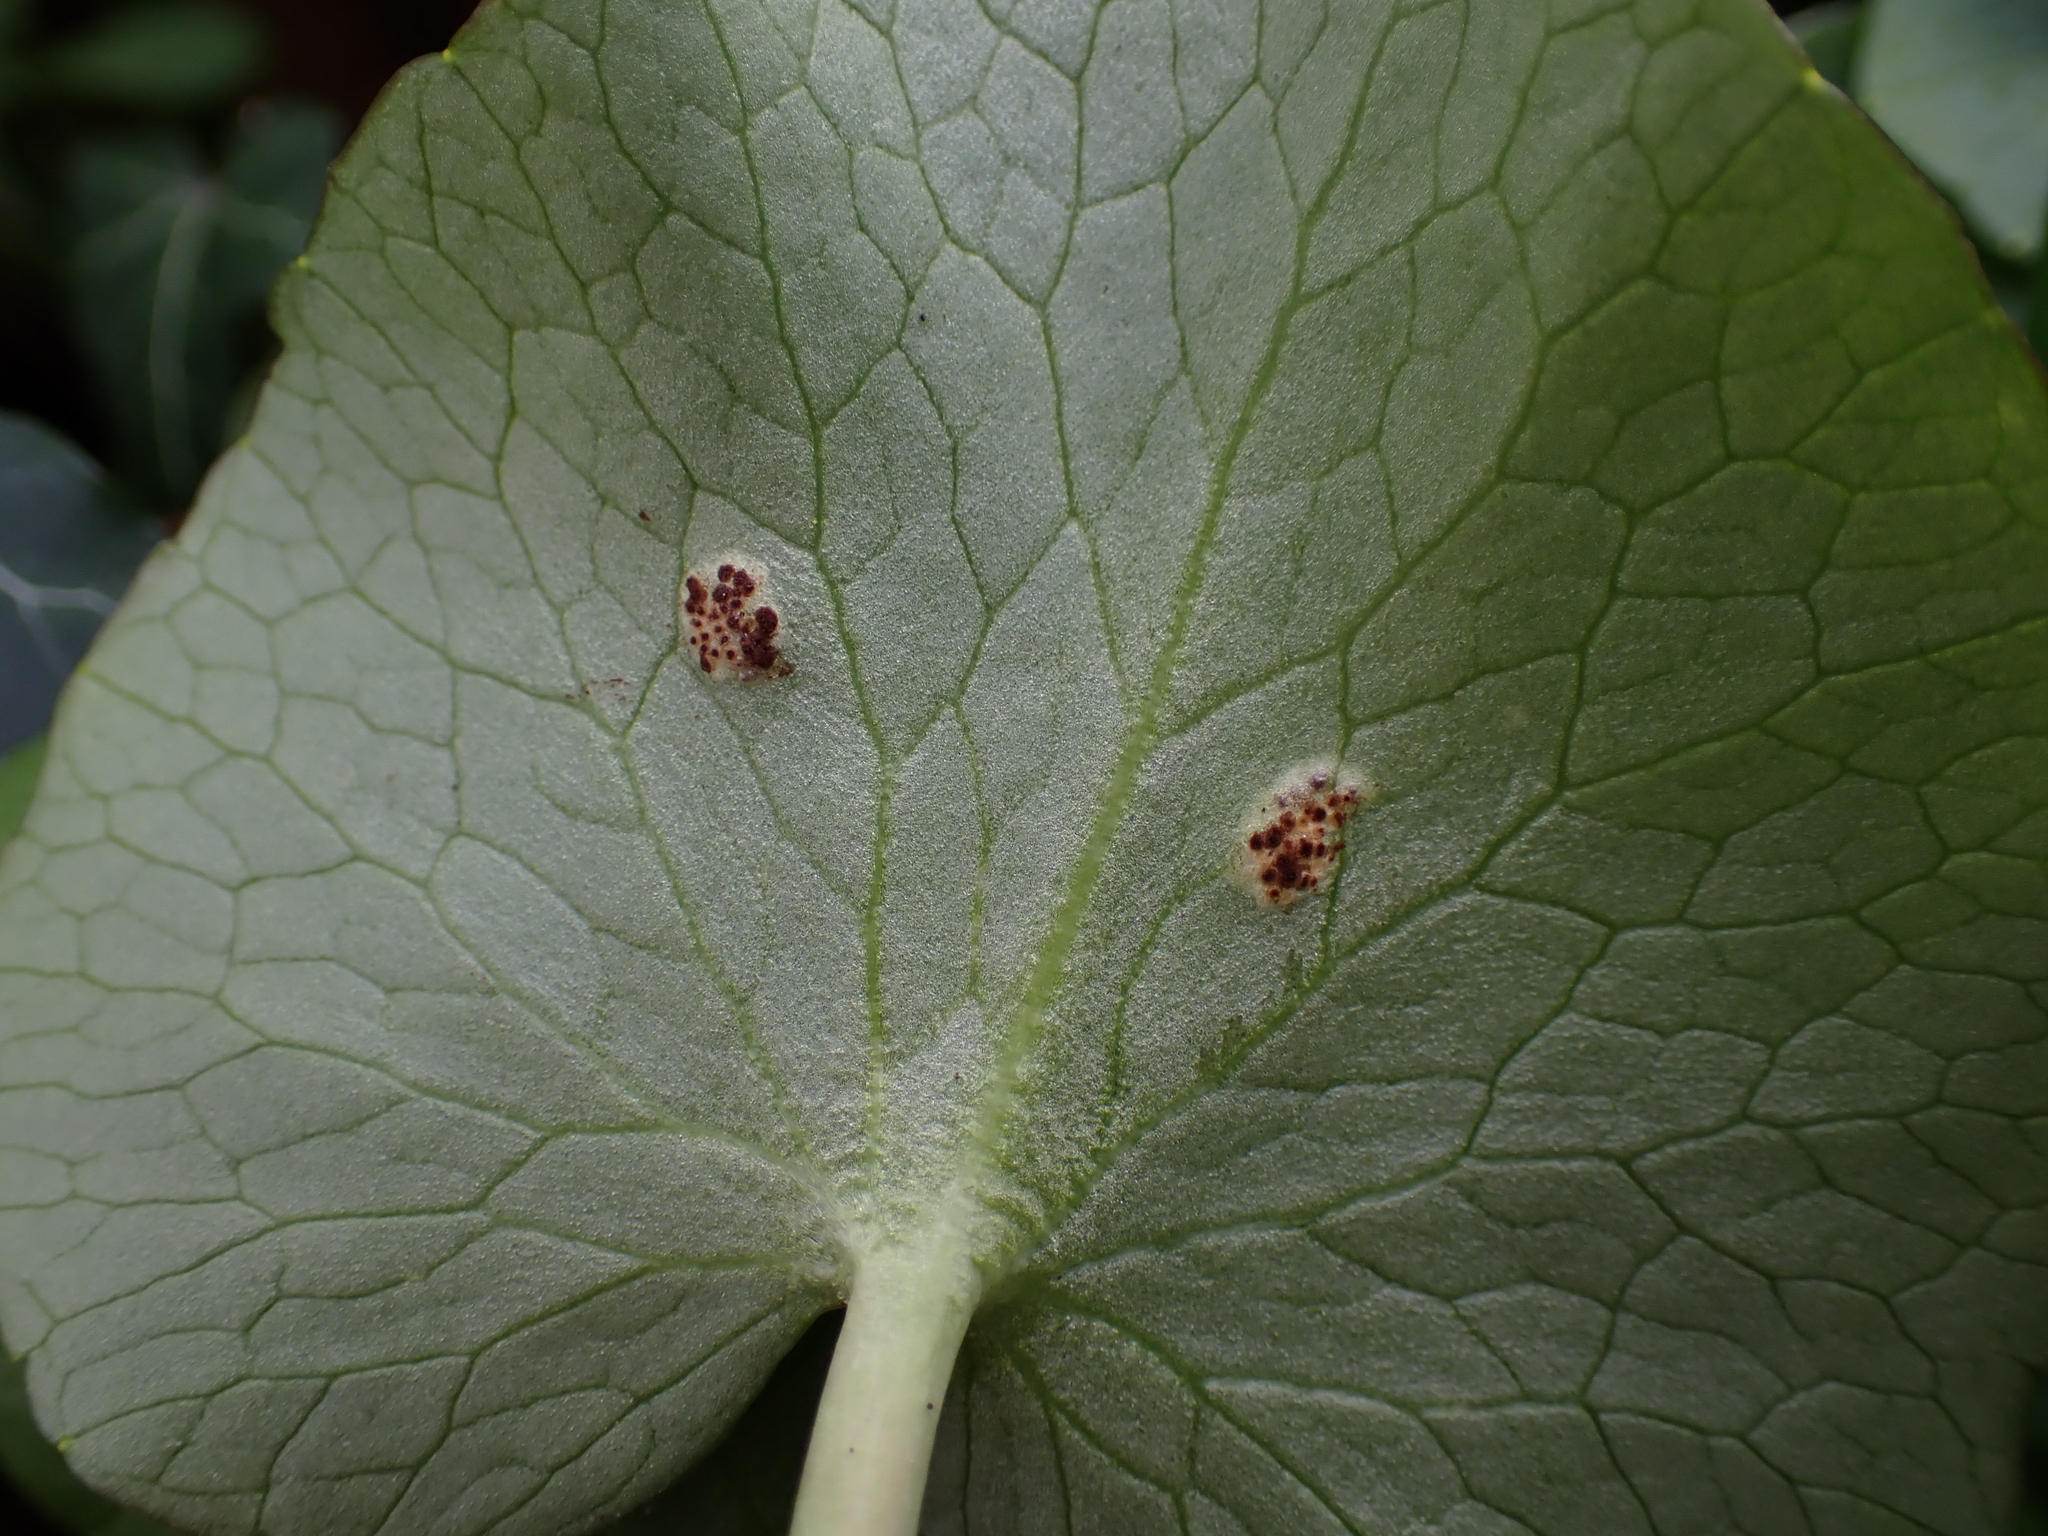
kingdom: Fungi
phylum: Basidiomycota
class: Pucciniomycetes
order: Pucciniales
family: Pucciniaceae
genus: Uromyces
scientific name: Uromyces ficariae
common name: Bitter chocolate rust
